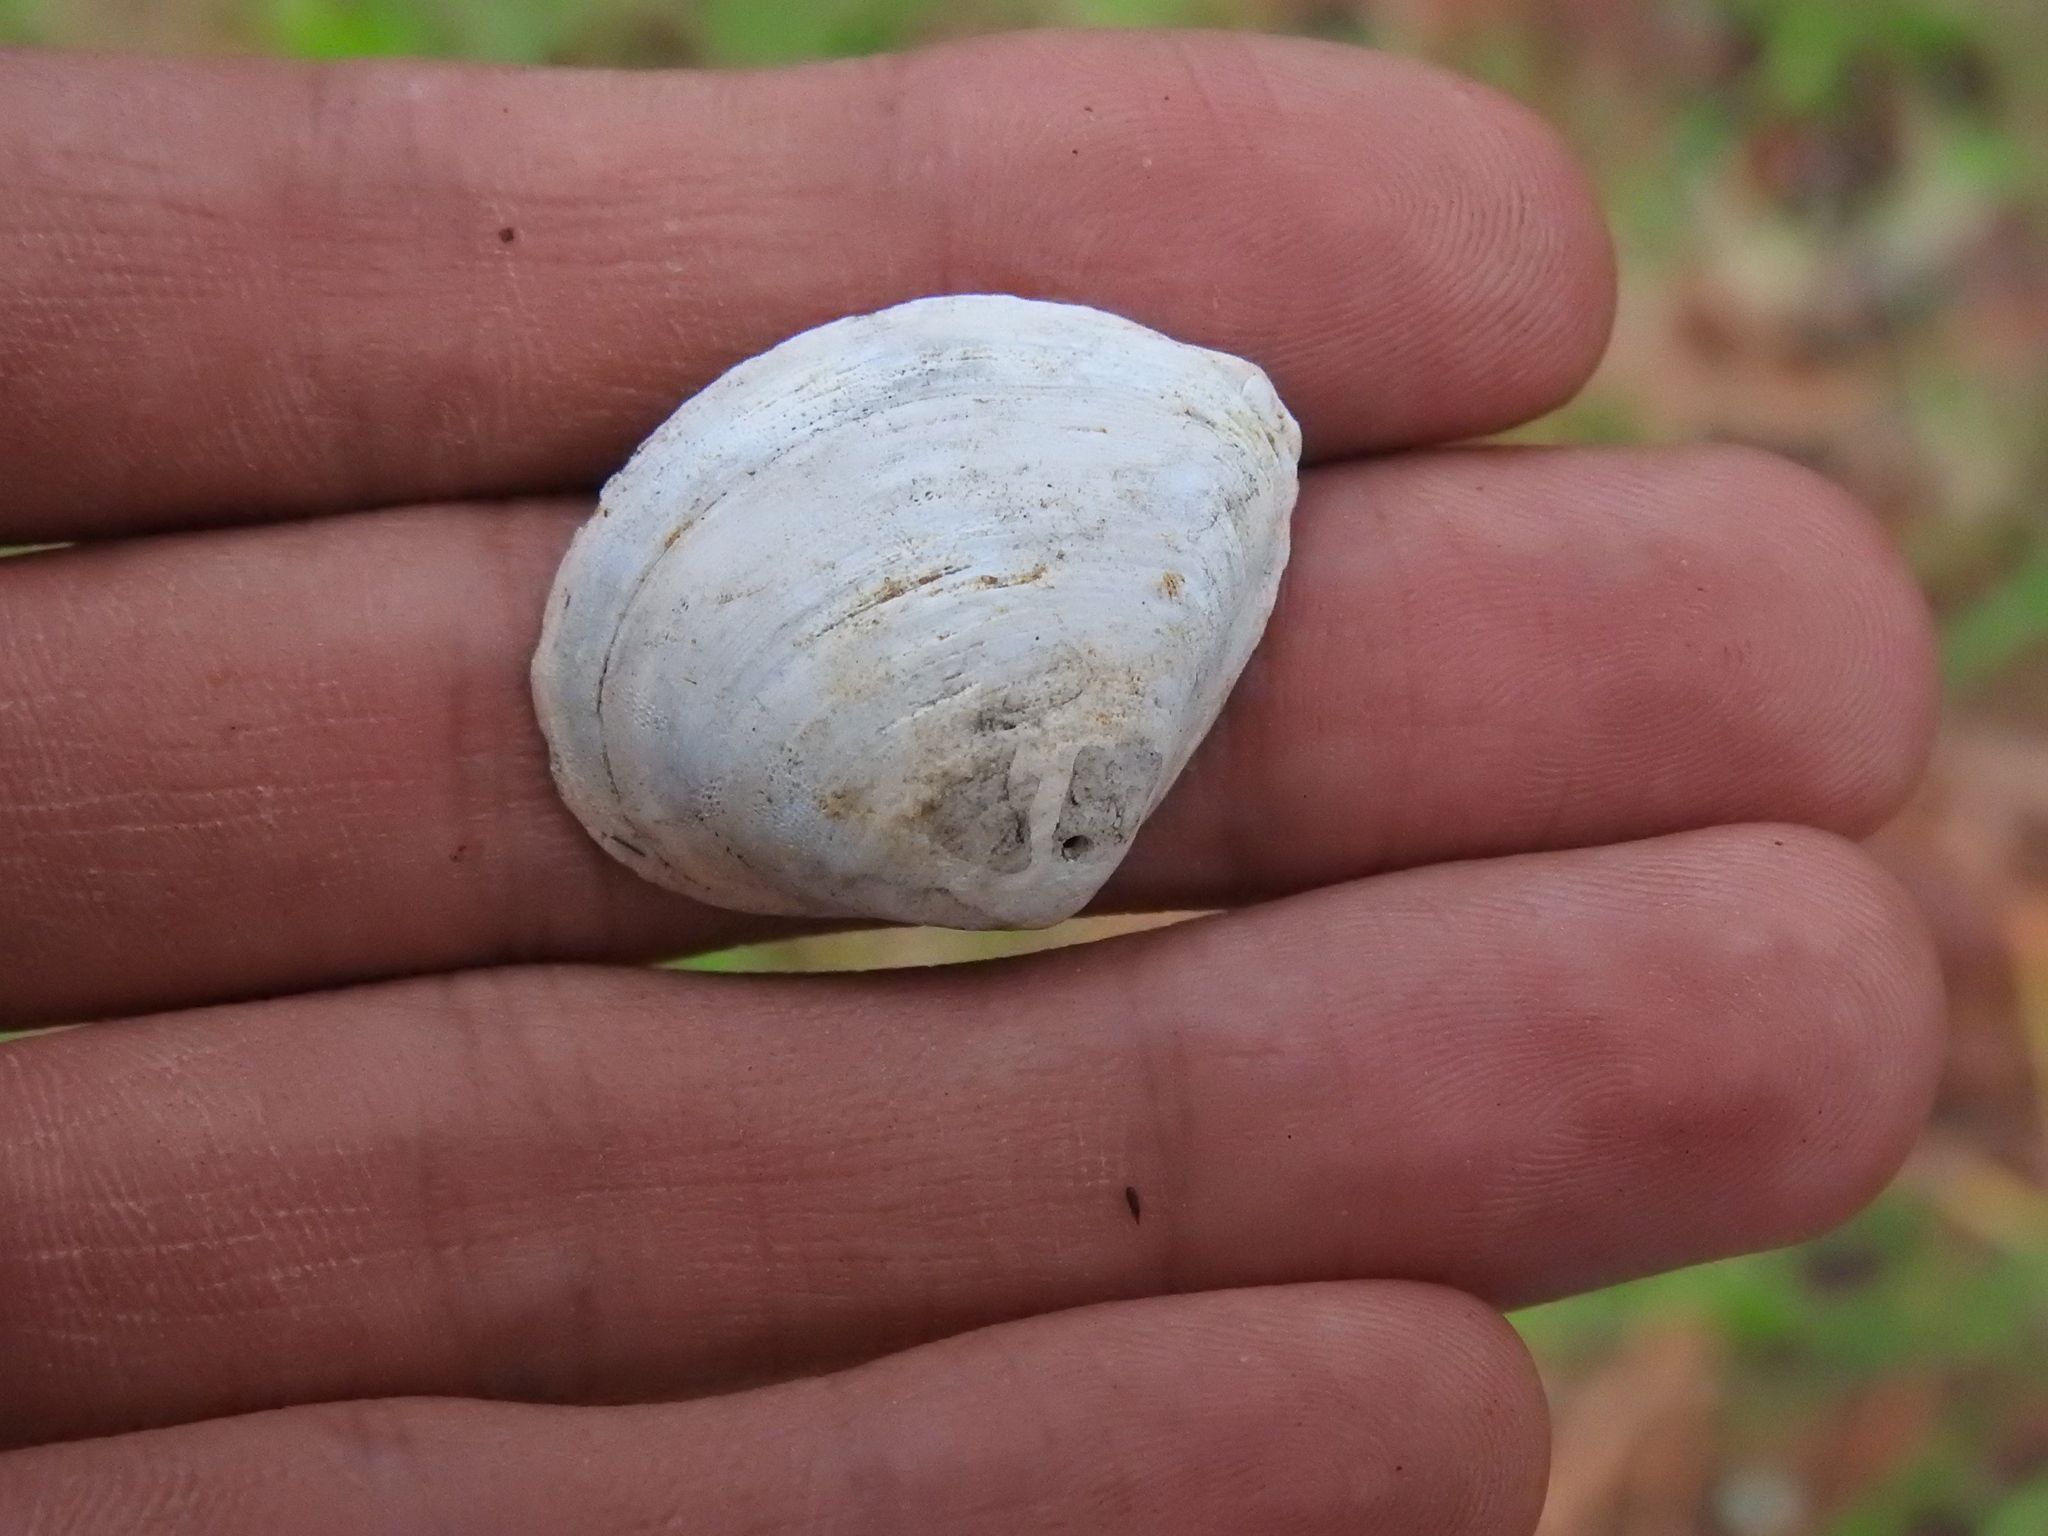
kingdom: Animalia
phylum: Mollusca
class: Bivalvia
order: Venerida
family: Mactridae
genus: Rangia
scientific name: Rangia cuneata
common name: Atlantic rangia
